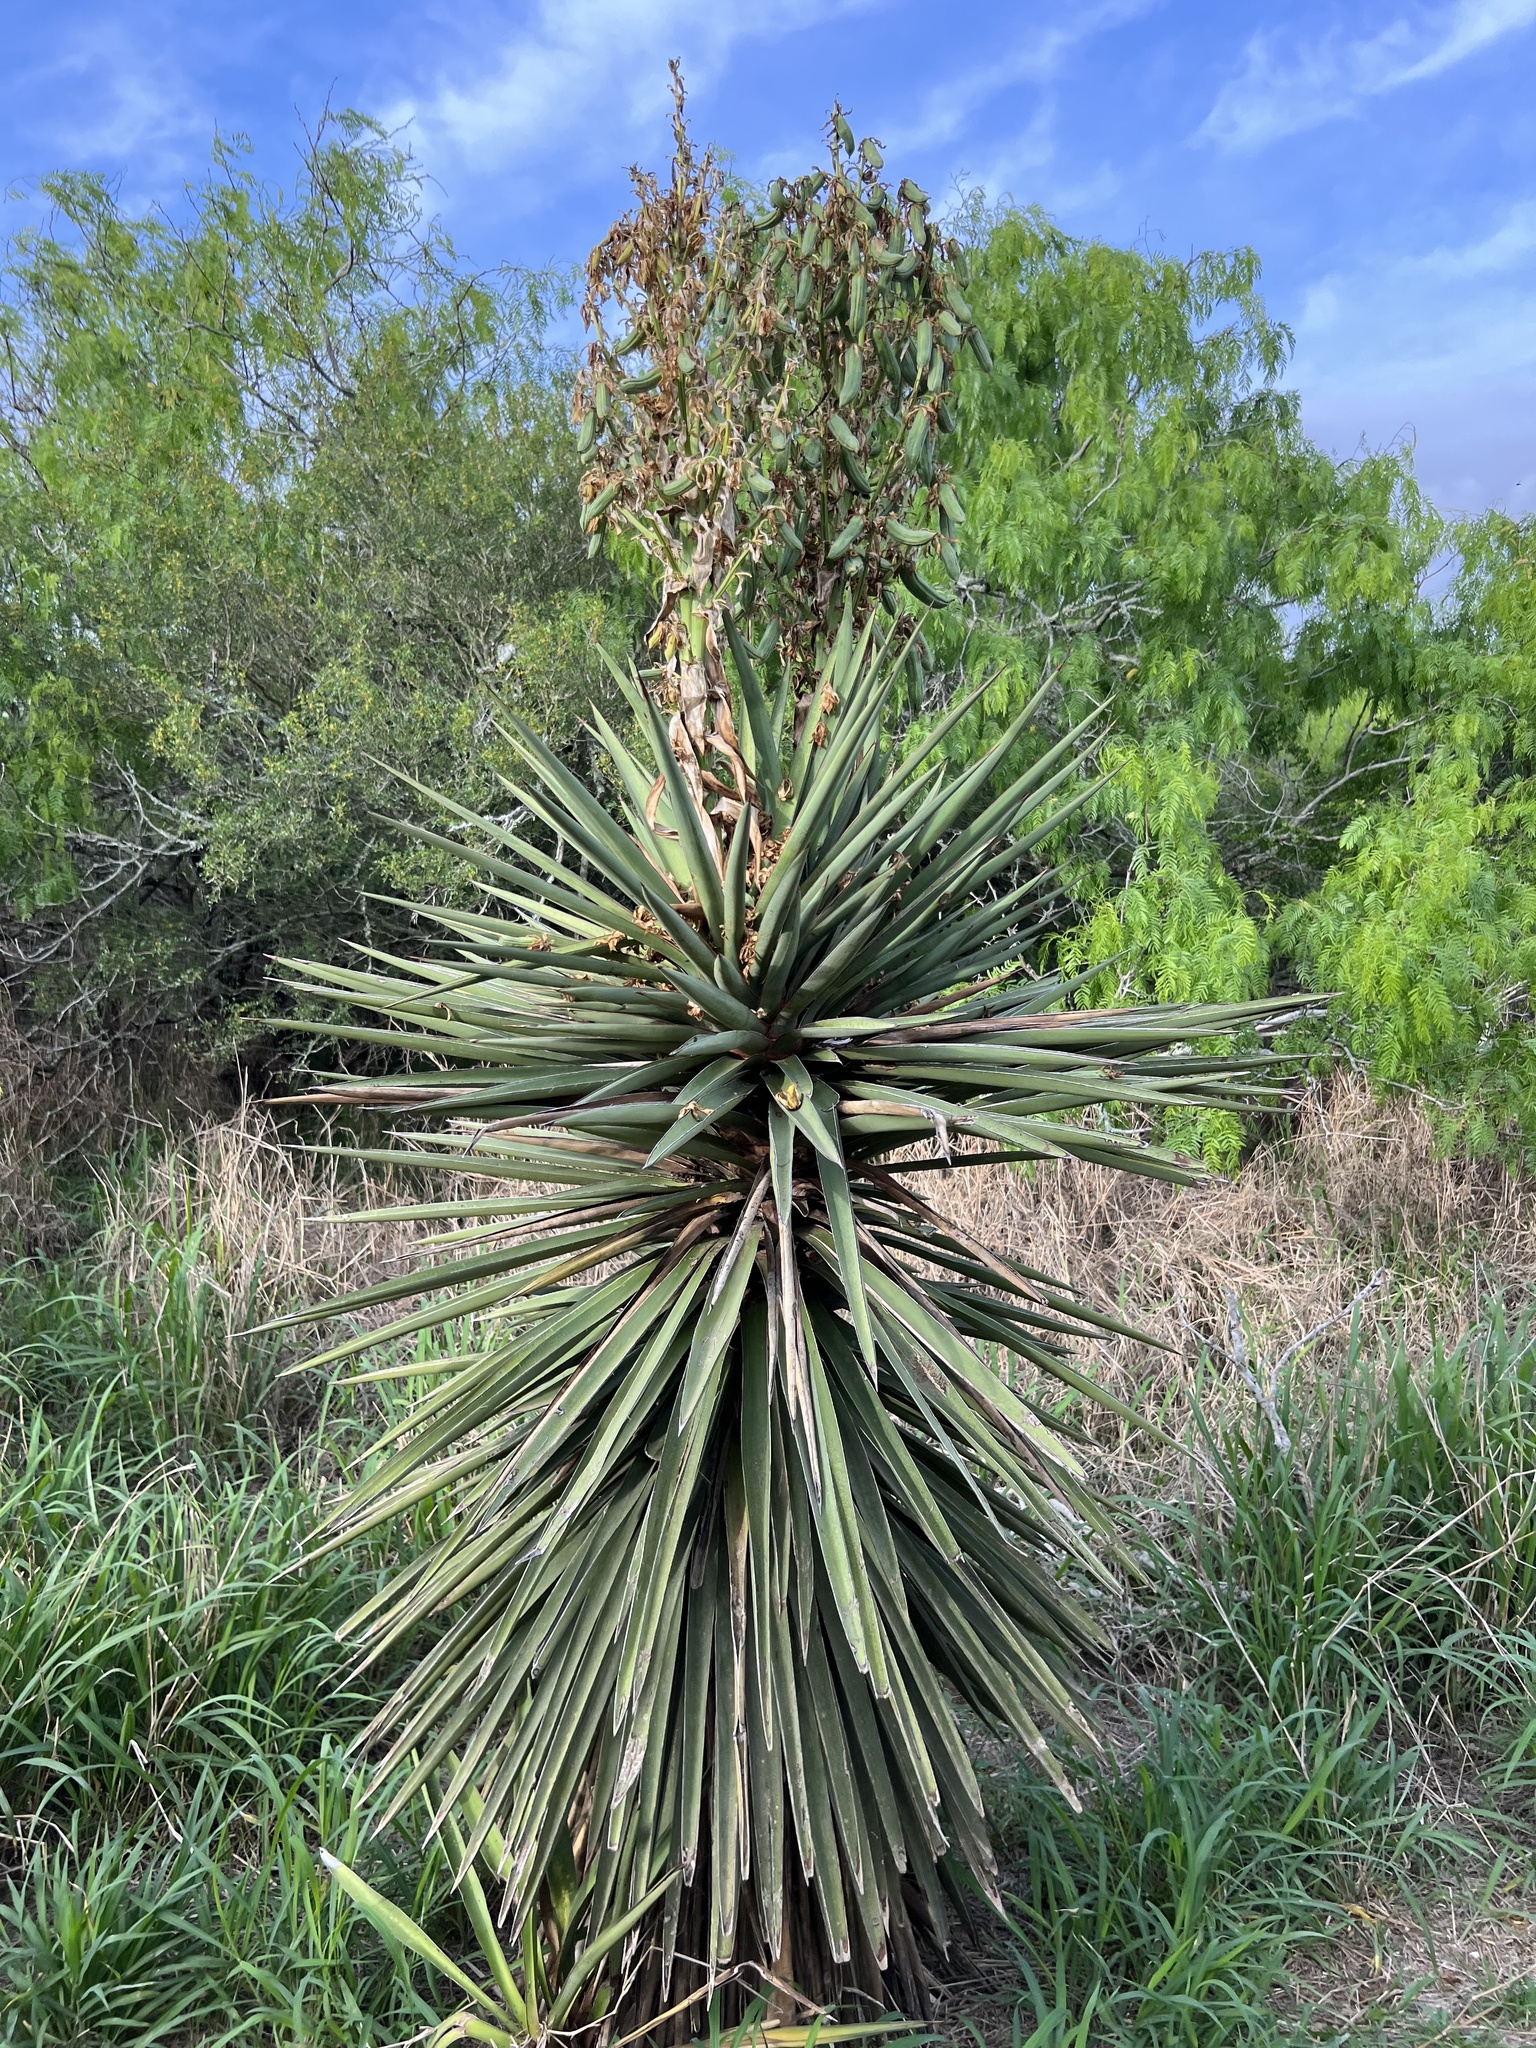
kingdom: Plantae
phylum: Tracheophyta
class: Liliopsida
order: Asparagales
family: Asparagaceae
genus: Yucca
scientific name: Yucca treculiana
